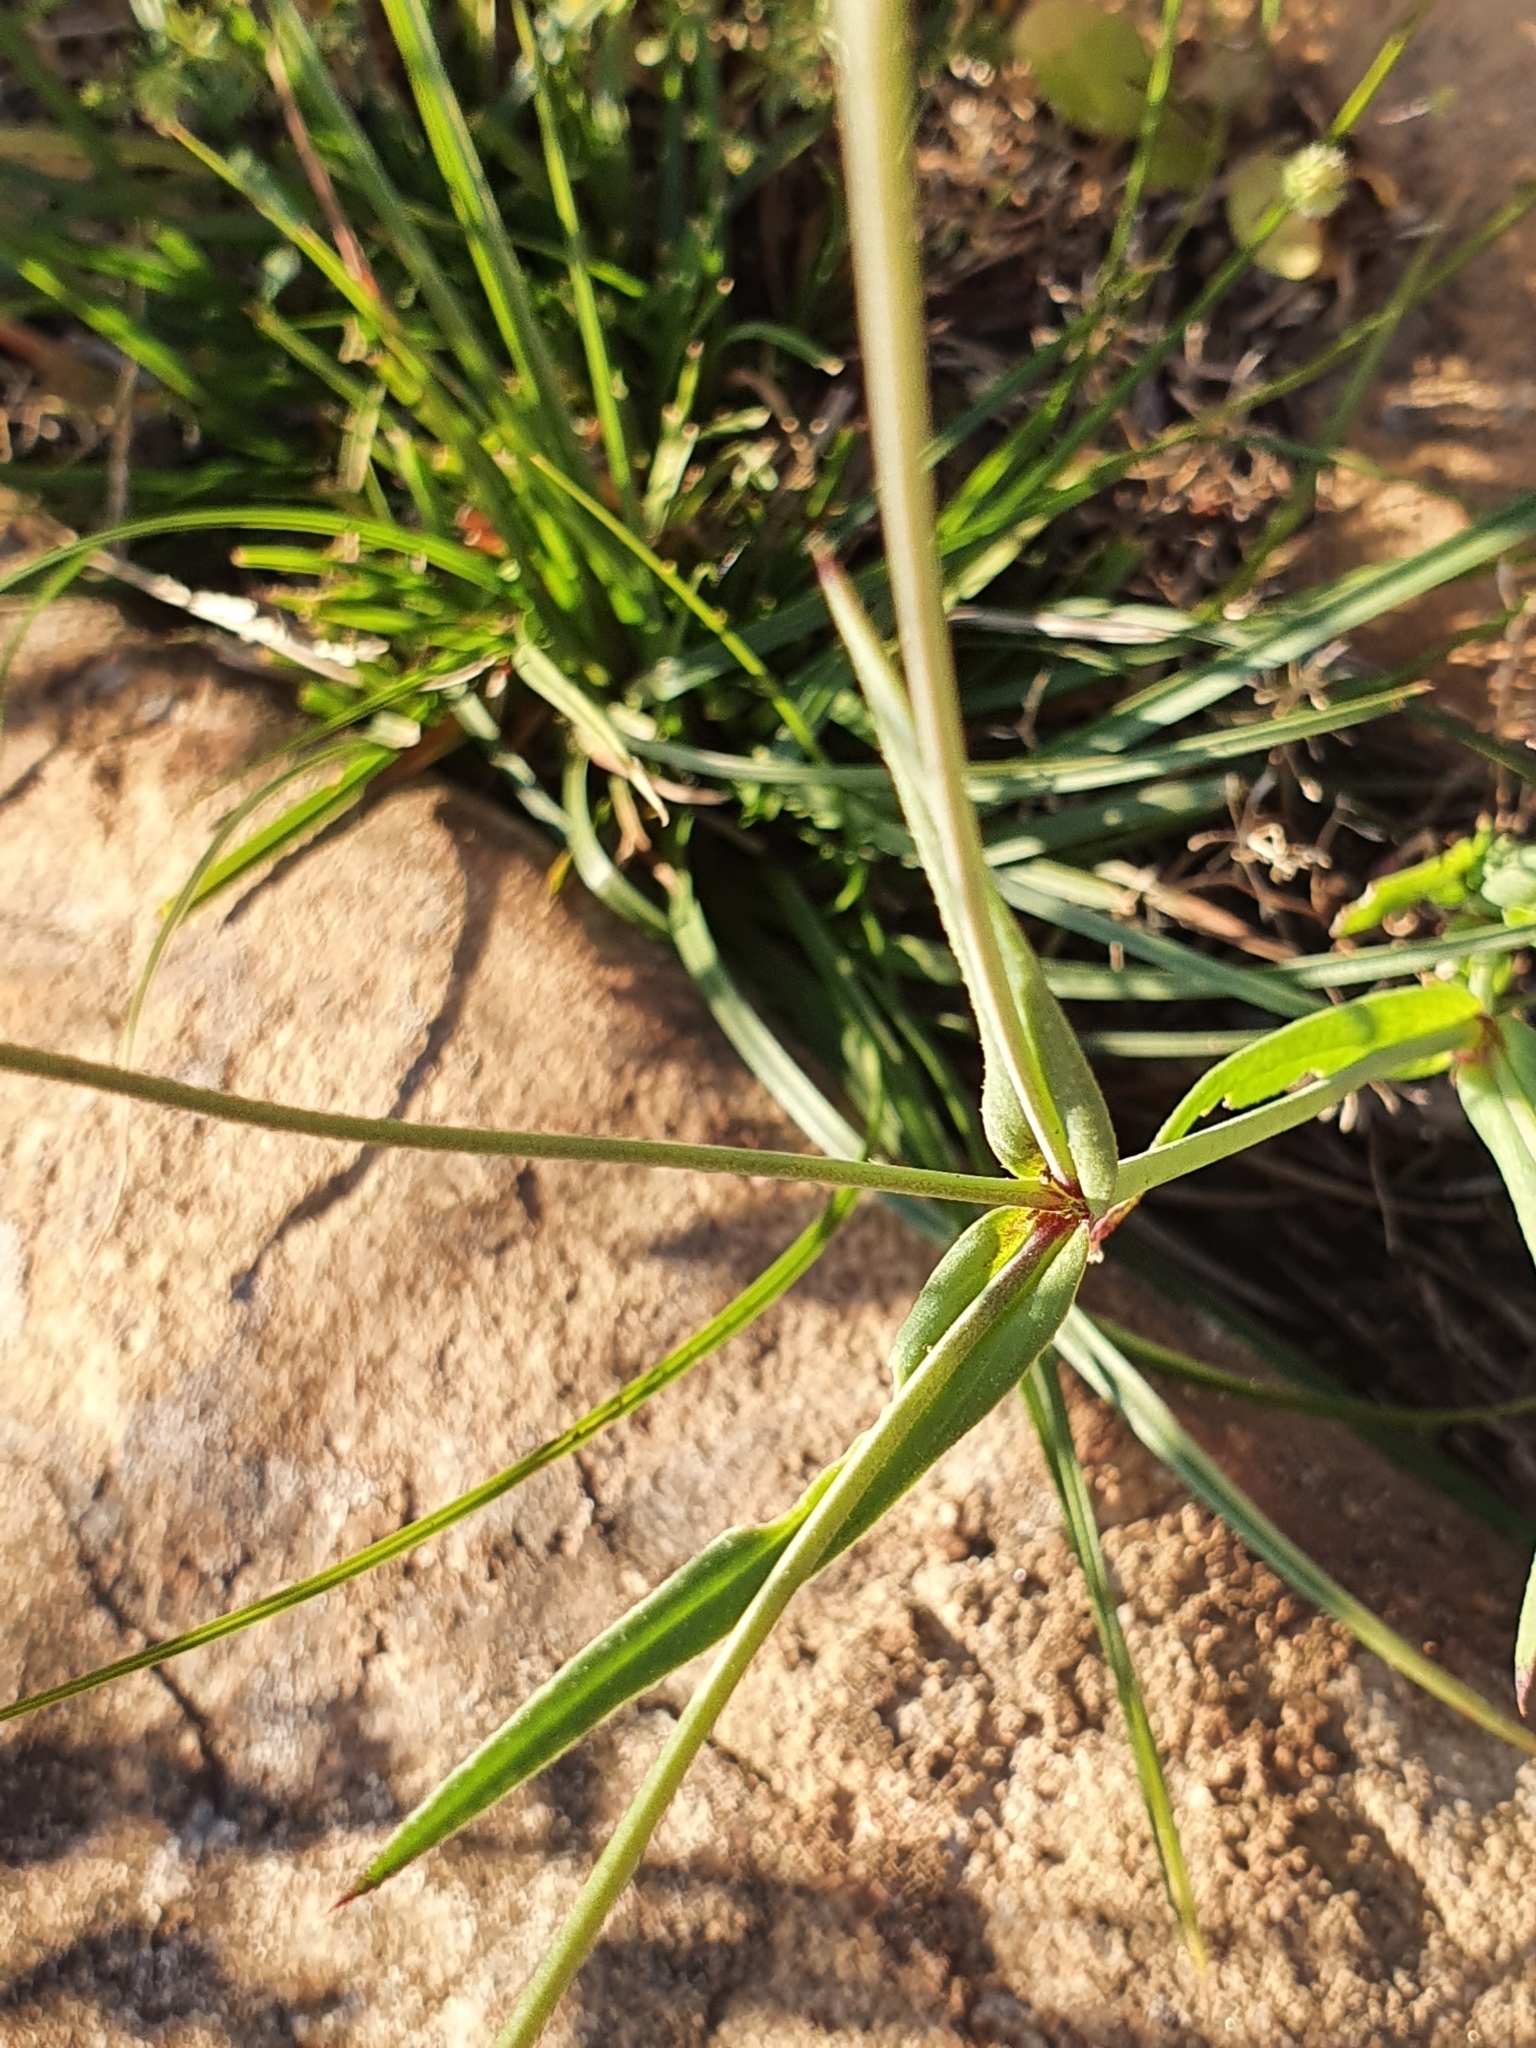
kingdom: Plantae
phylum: Tracheophyta
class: Magnoliopsida
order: Caryophyllales
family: Caryophyllaceae
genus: Eudianthe
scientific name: Eudianthe coeli-rosa
